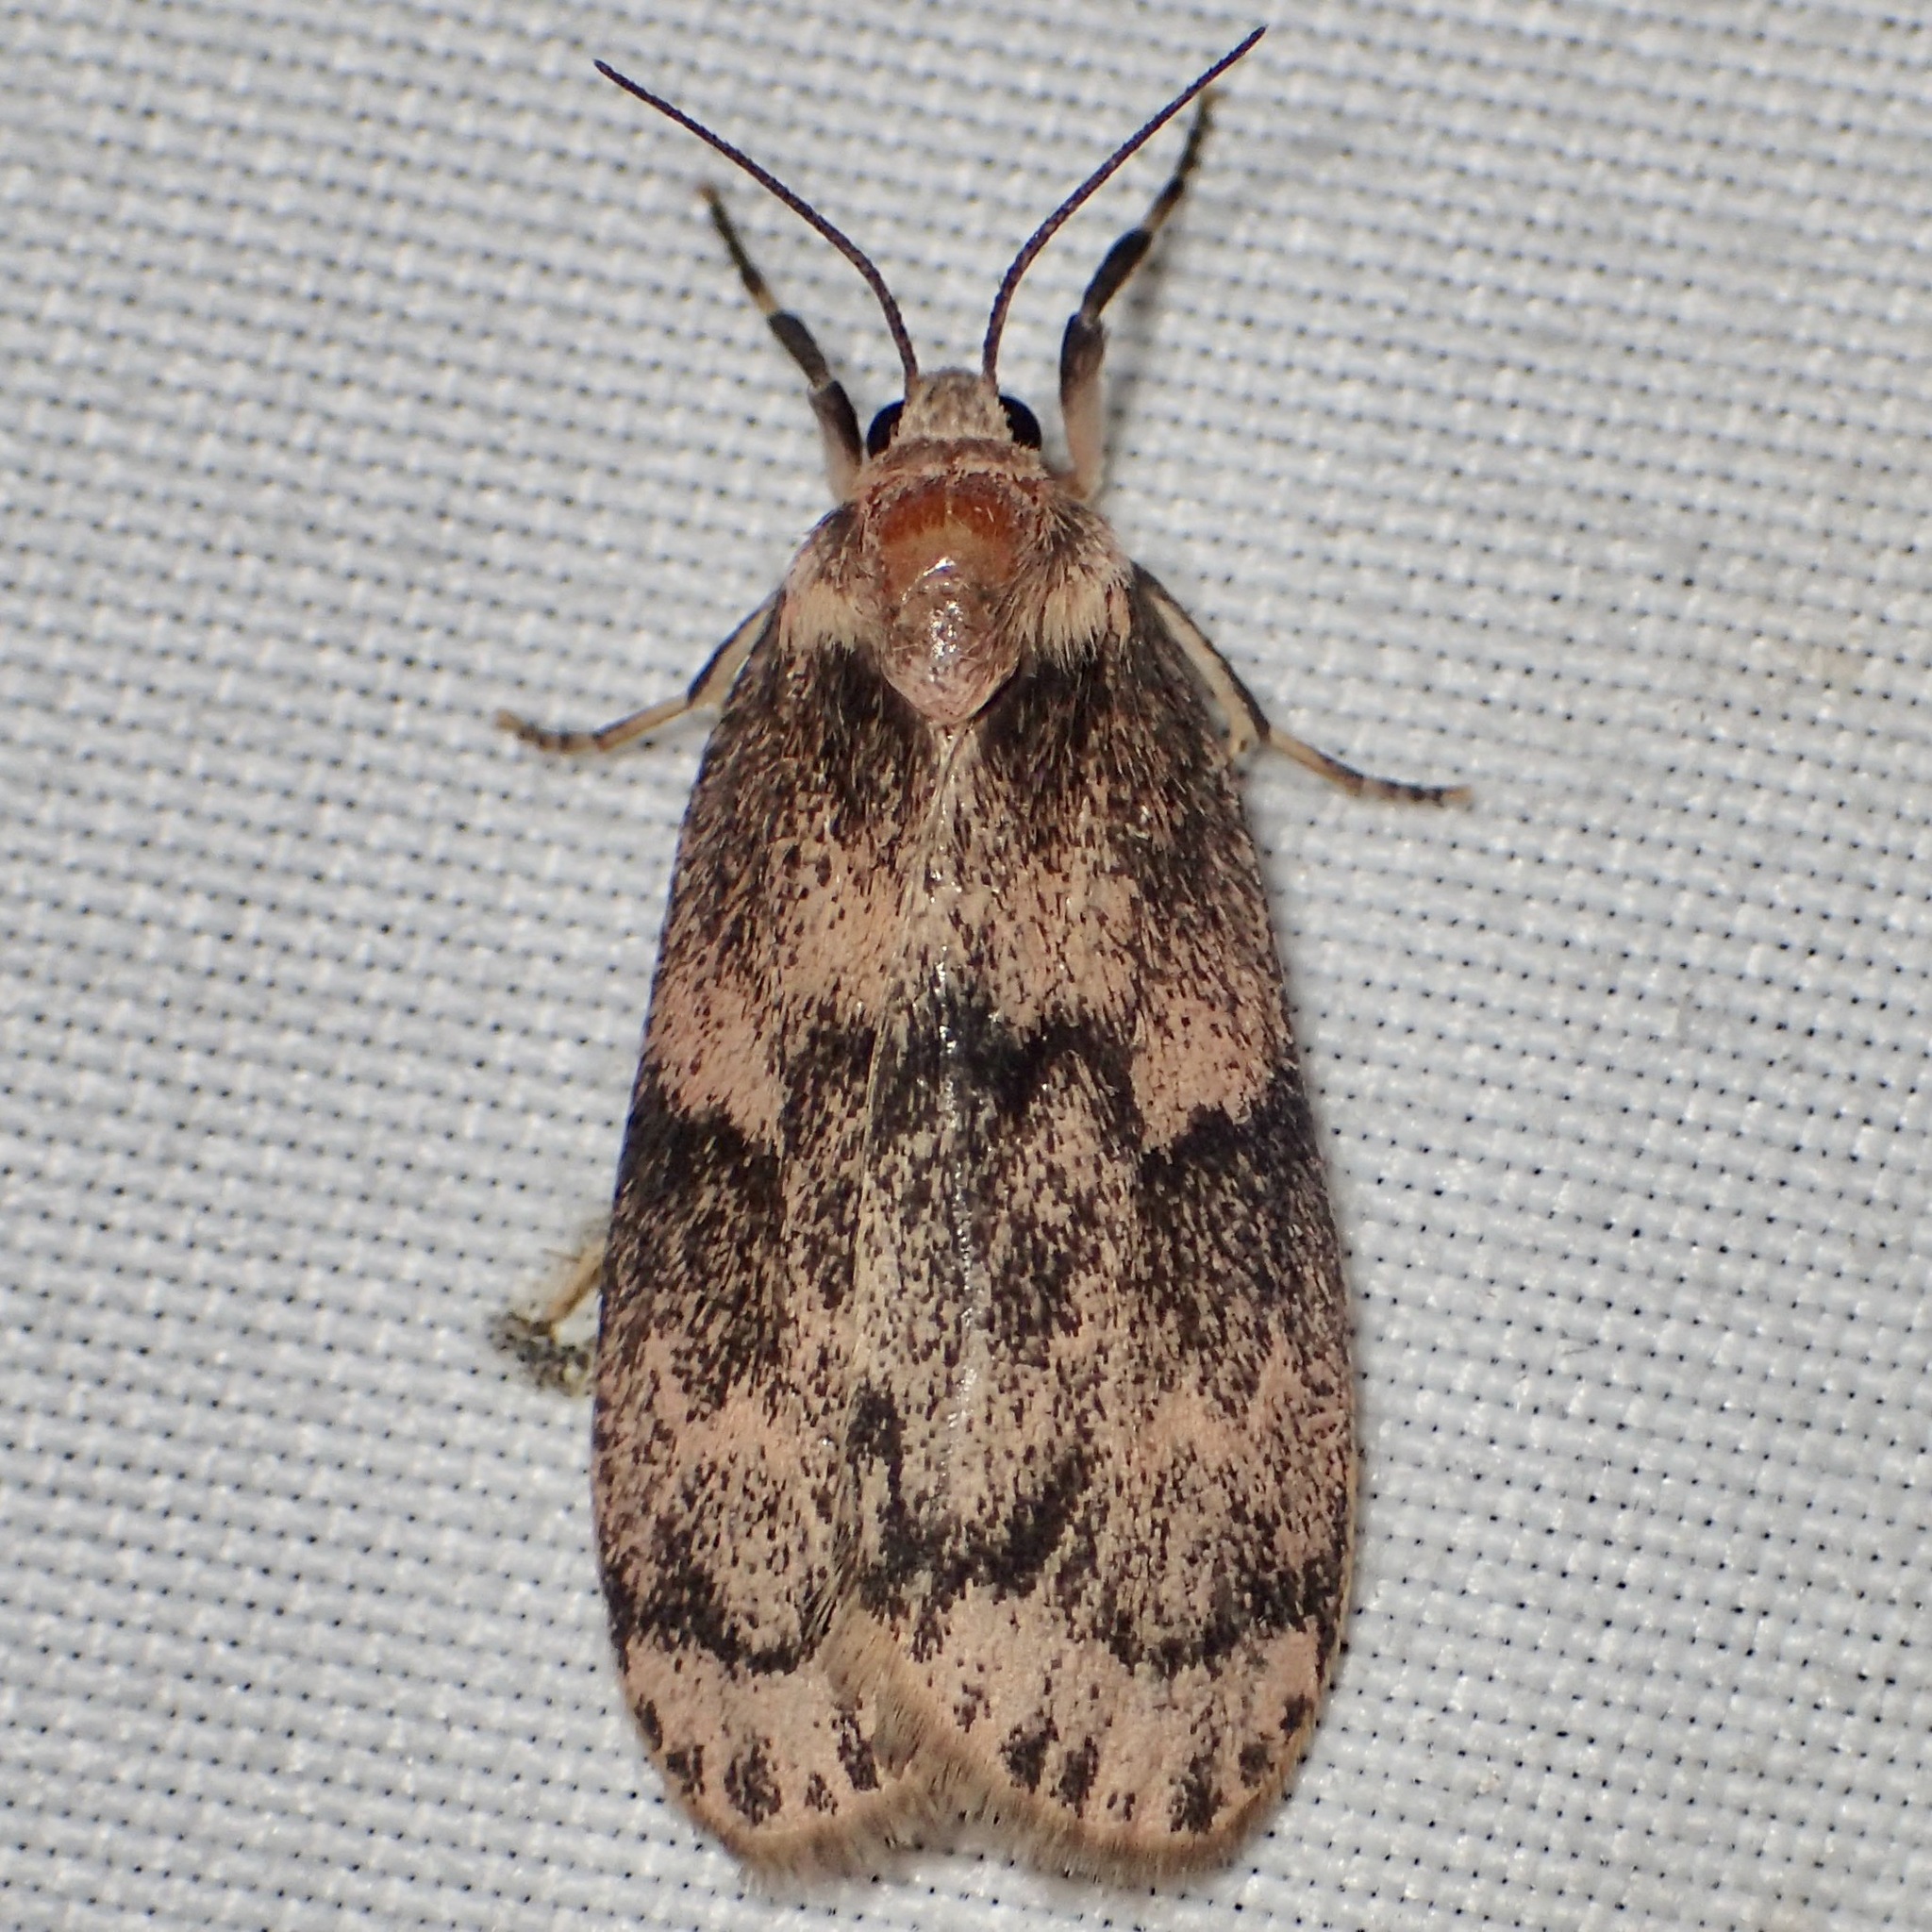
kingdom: Animalia
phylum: Arthropoda
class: Insecta
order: Lepidoptera
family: Erebidae
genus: Bruceia
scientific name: Bruceia hubbardi
